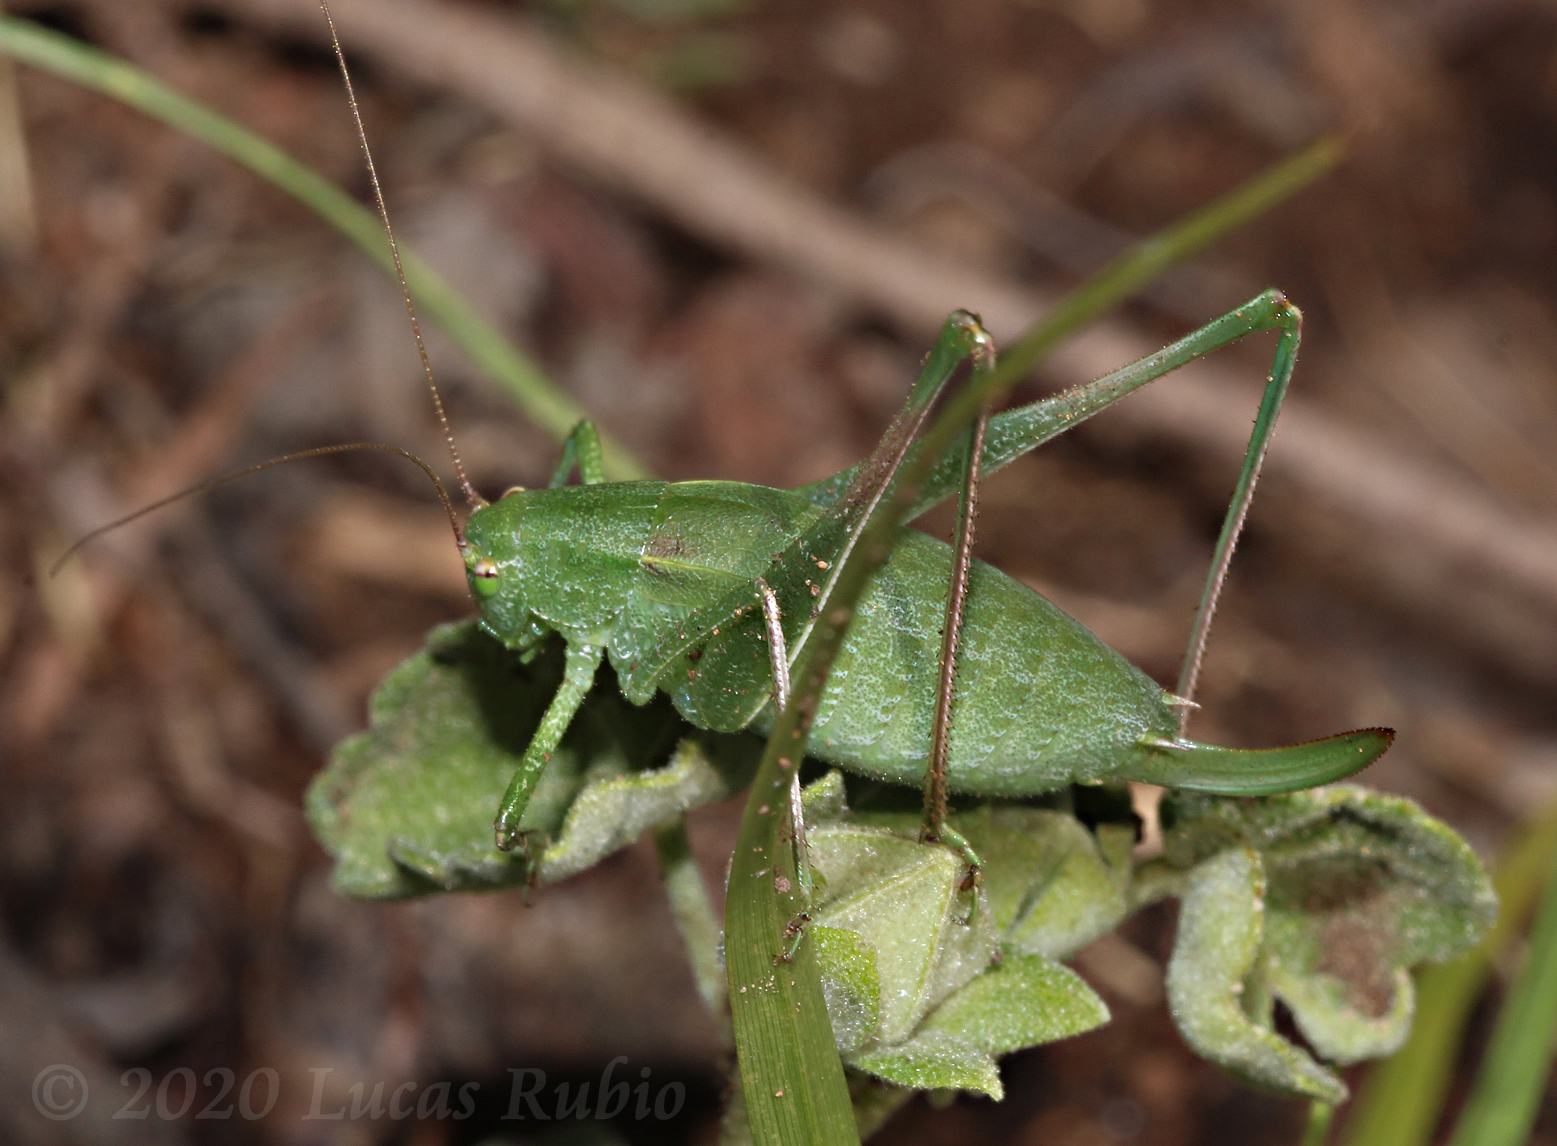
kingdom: Animalia
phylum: Arthropoda
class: Insecta
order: Orthoptera
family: Tettigoniidae
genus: Anisophya
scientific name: Anisophya brasiliensis
